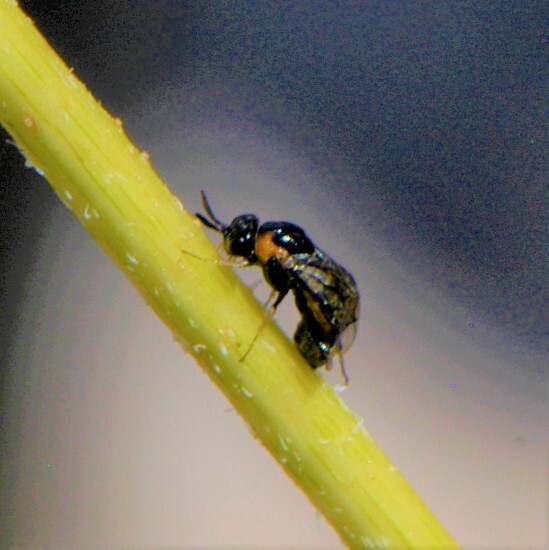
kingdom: Animalia
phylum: Arthropoda
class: Insecta
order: Hymenoptera
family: Argidae
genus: Schizocerella
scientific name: Schizocerella pilicornis
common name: Purslane sawfly
